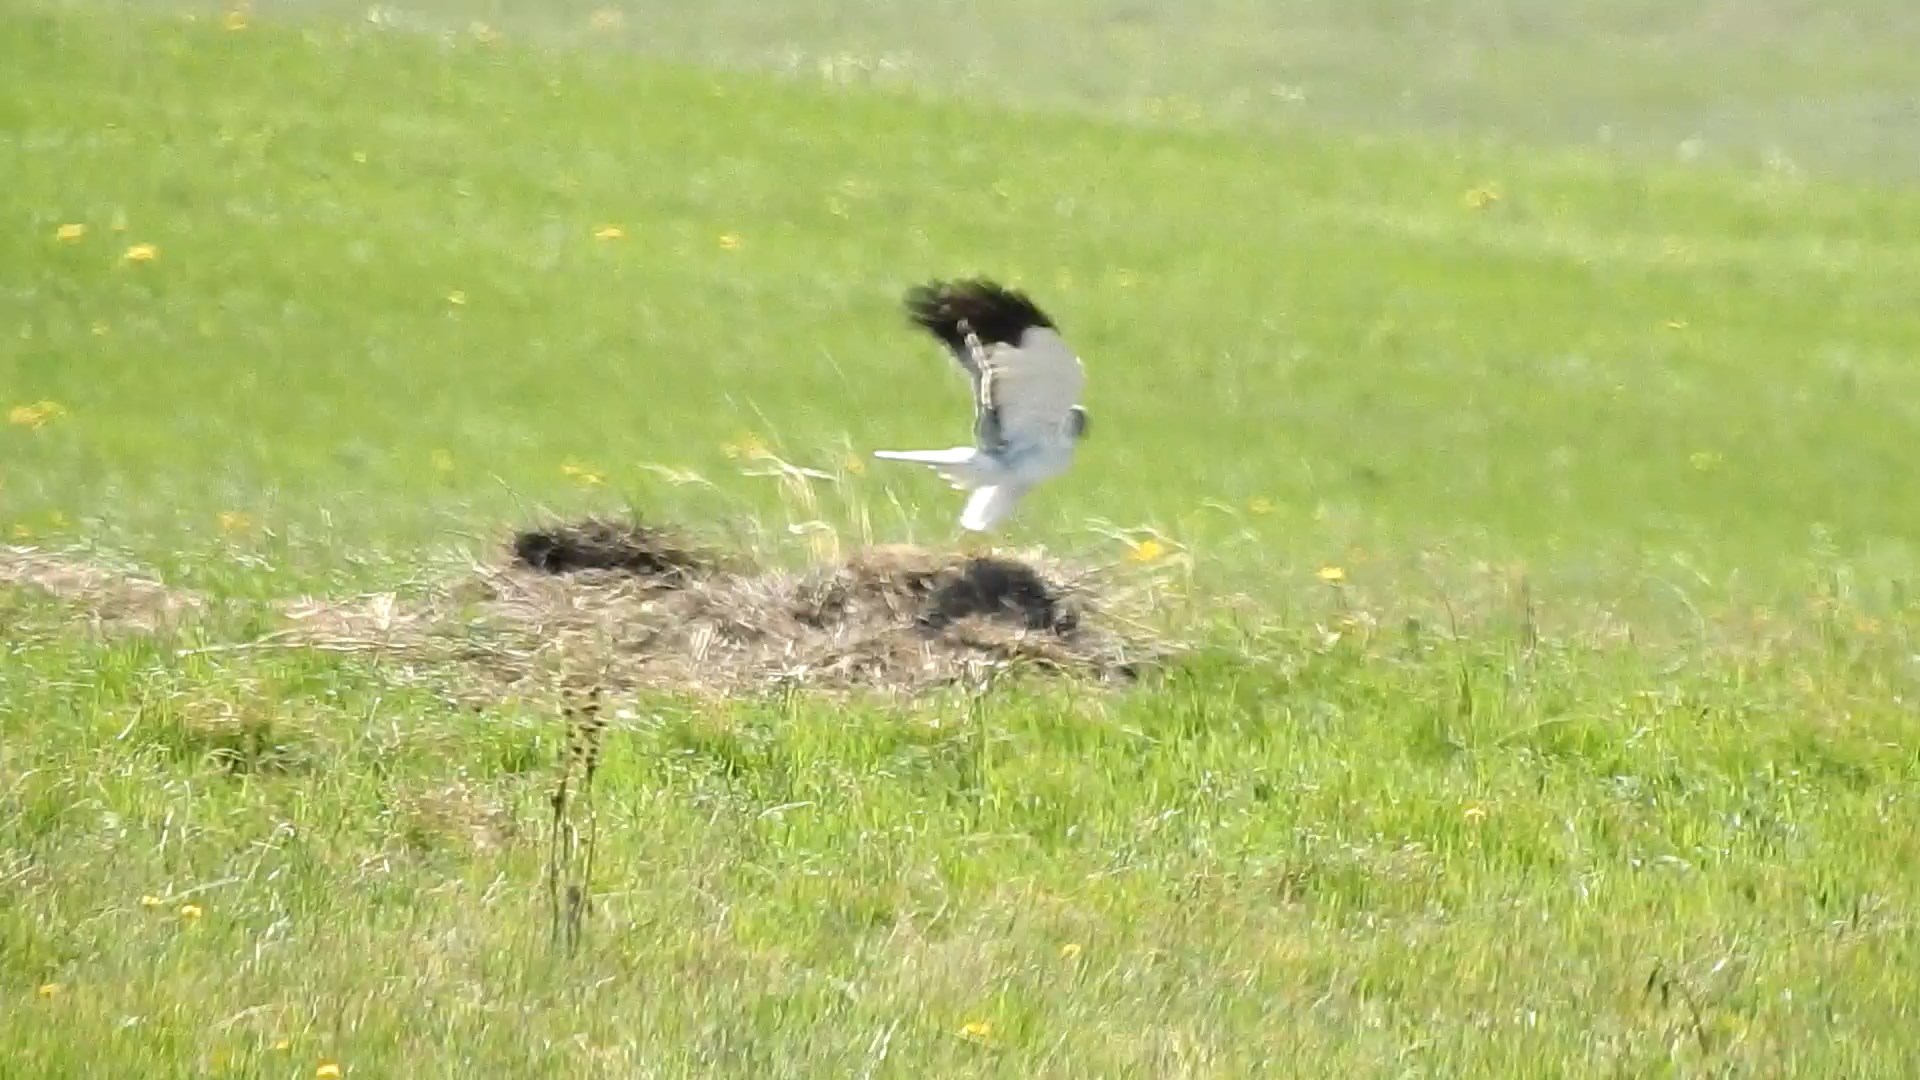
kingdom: Animalia
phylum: Chordata
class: Aves
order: Accipitriformes
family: Accipitridae
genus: Circus
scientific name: Circus cyaneus
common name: Hen harrier
